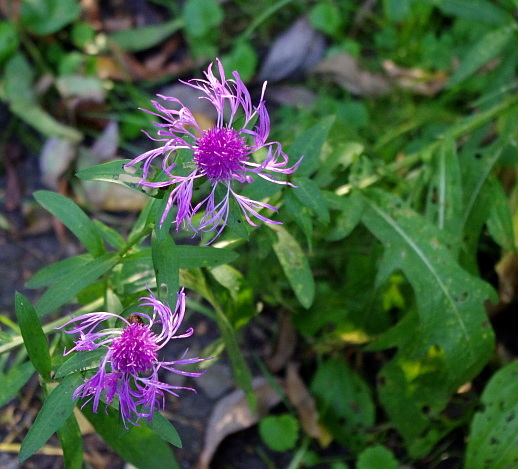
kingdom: Plantae
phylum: Tracheophyta
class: Magnoliopsida
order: Asterales
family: Asteraceae
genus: Centaurea
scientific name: Centaurea jacea
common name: Brown knapweed
